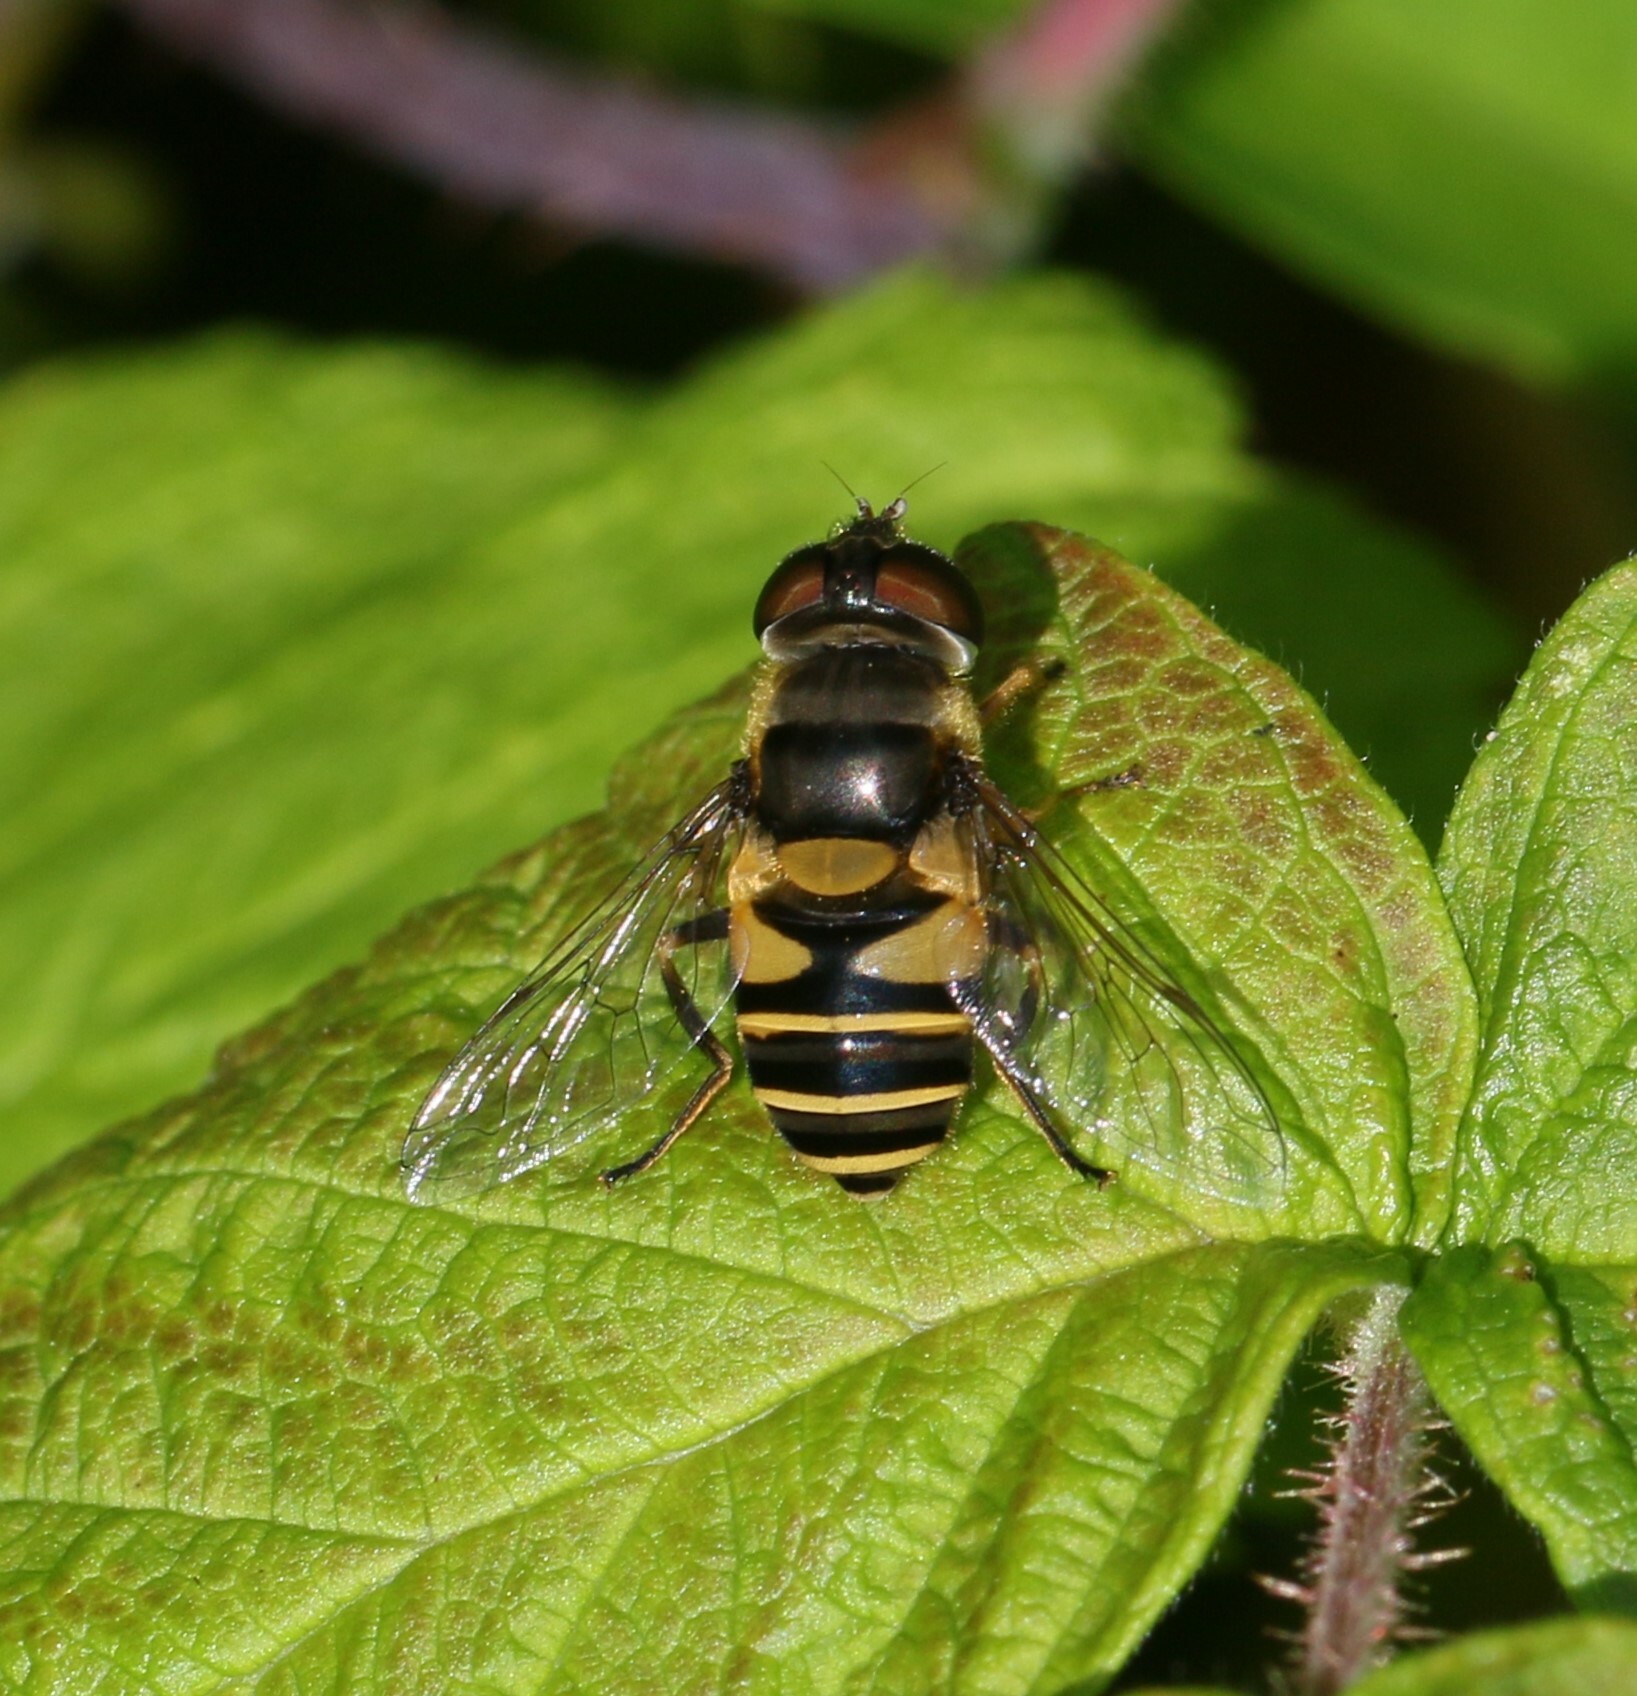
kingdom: Animalia
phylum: Arthropoda
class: Insecta
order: Diptera
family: Syrphidae
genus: Eristalis
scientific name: Eristalis transversa
